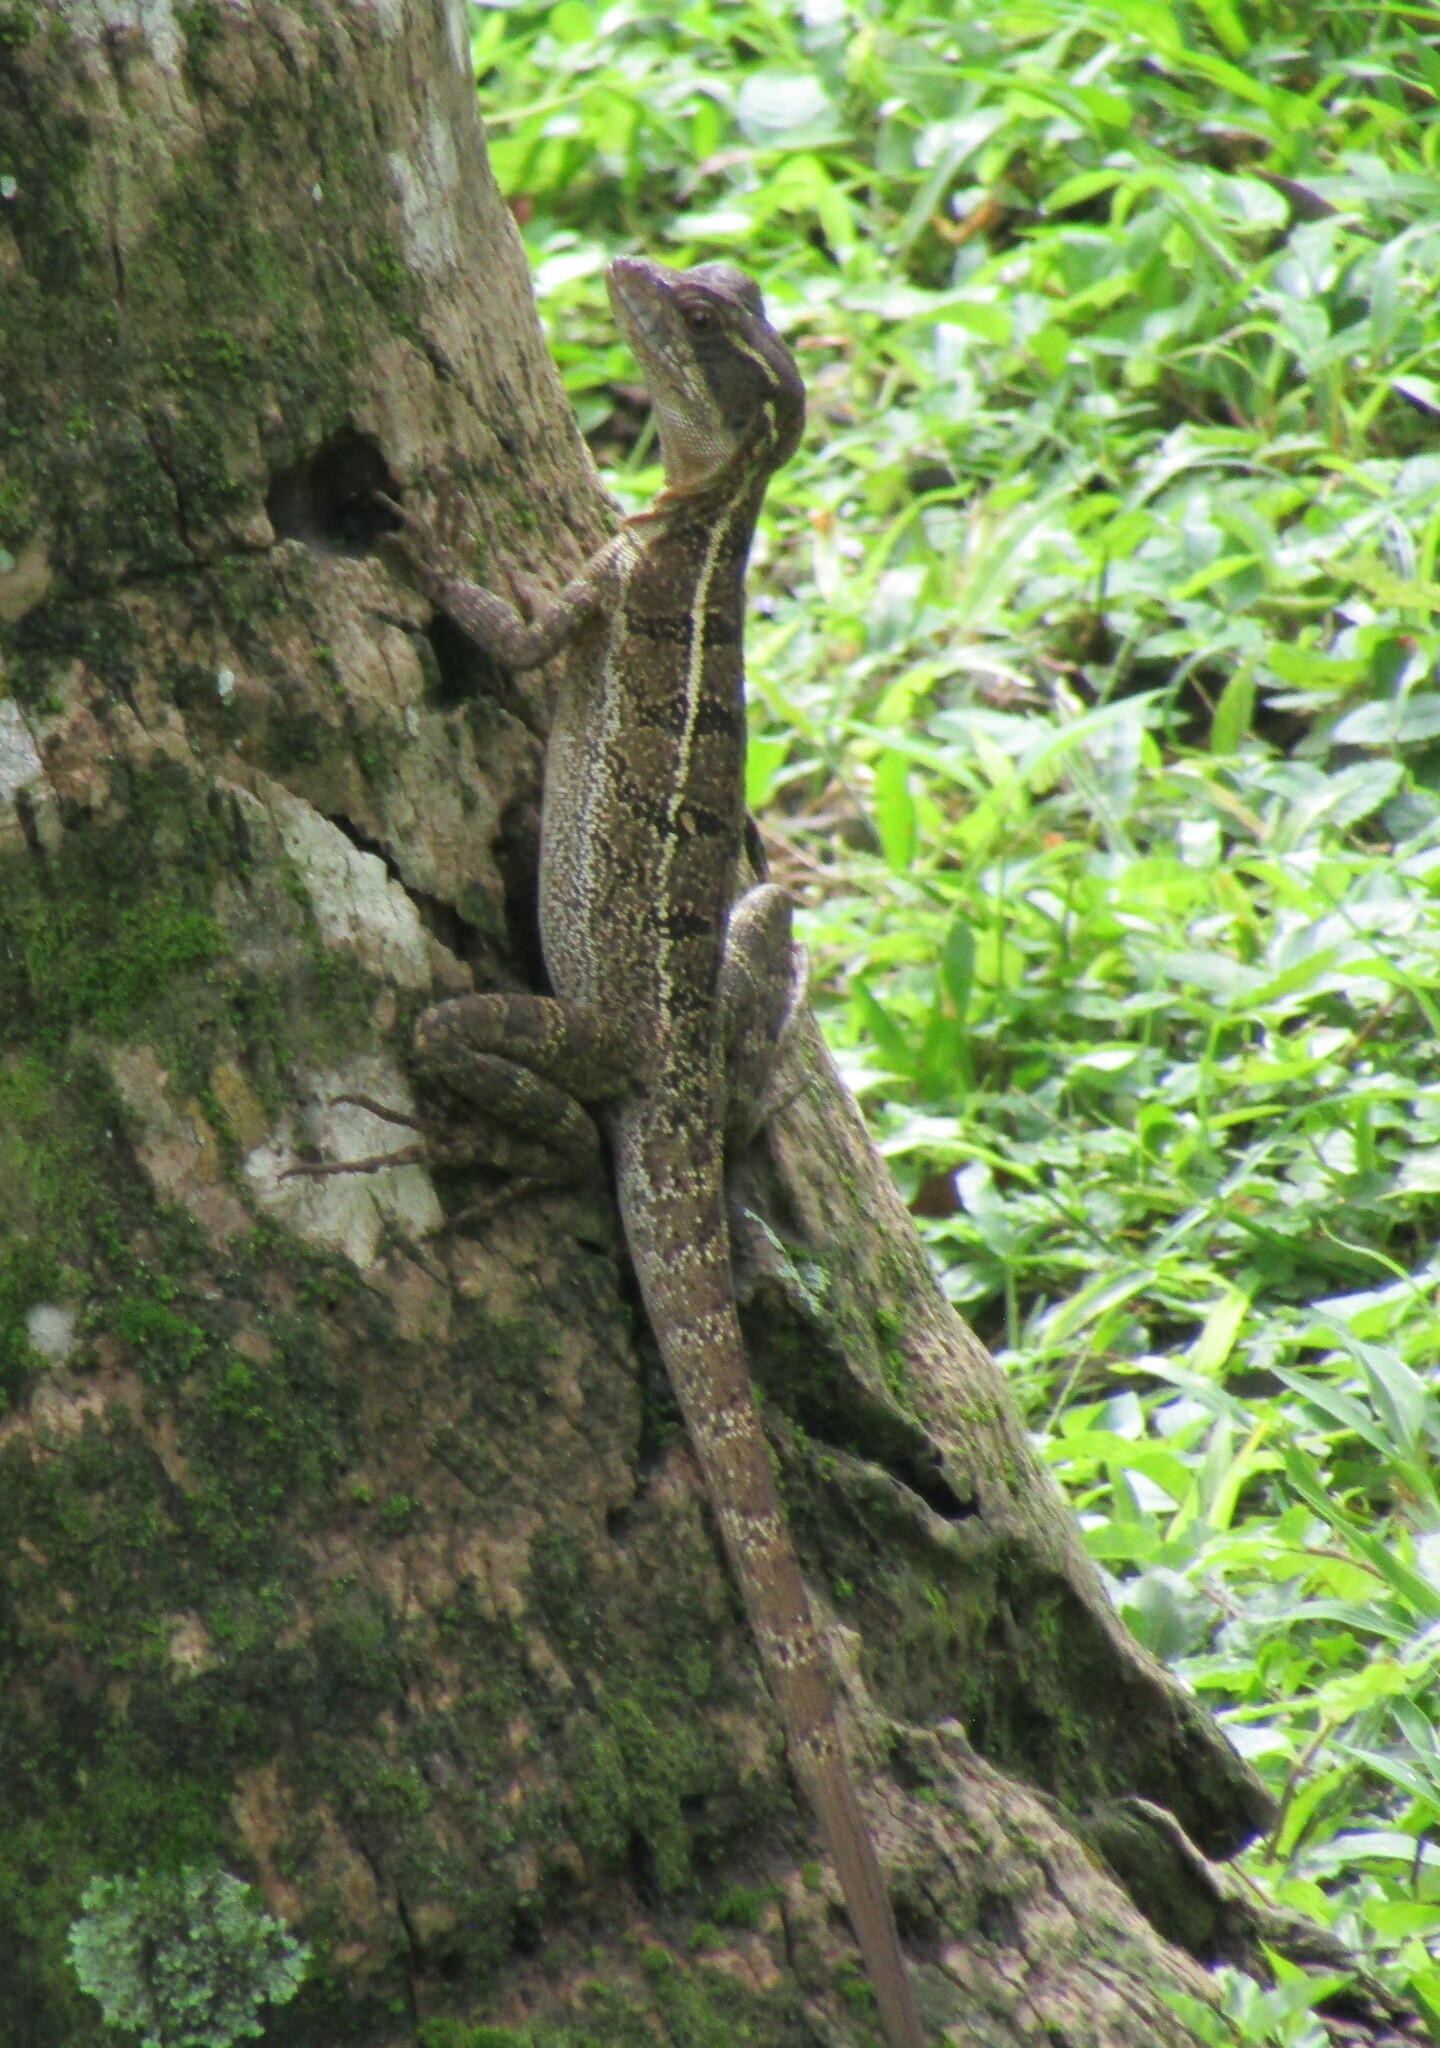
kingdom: Animalia
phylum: Chordata
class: Squamata
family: Corytophanidae
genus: Basiliscus
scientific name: Basiliscus basiliscus
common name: Common basilisk
